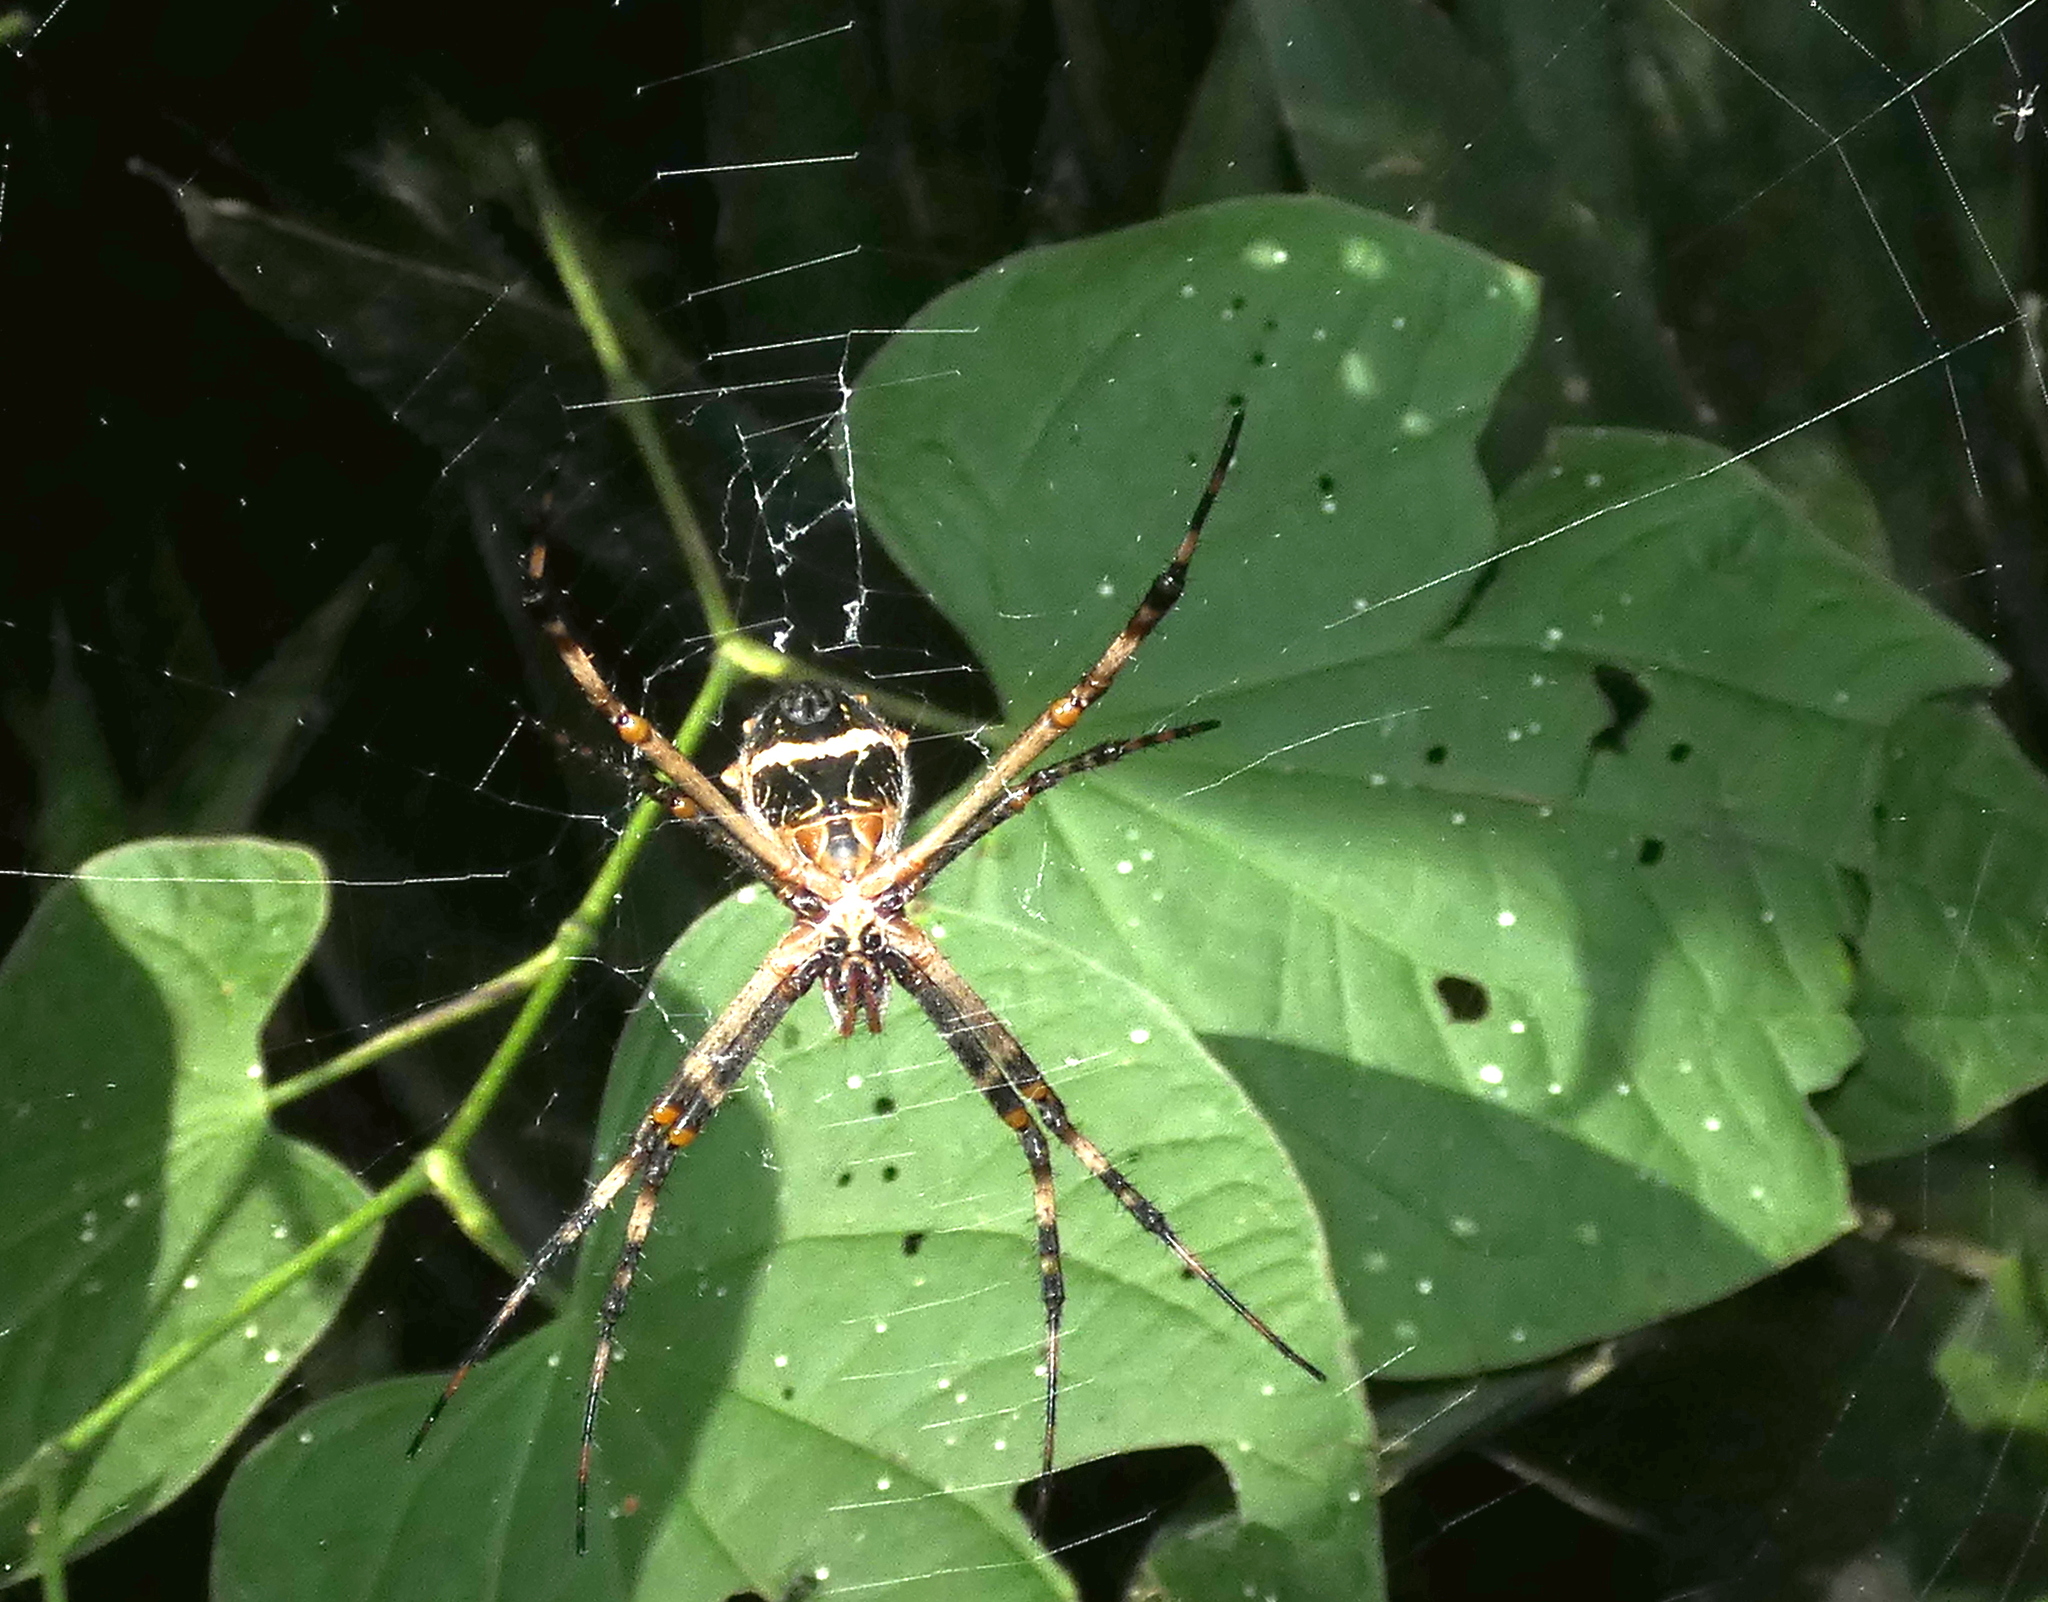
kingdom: Animalia
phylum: Arthropoda
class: Arachnida
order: Araneae
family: Araneidae
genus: Argiope
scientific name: Argiope argentata
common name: Orb weavers
